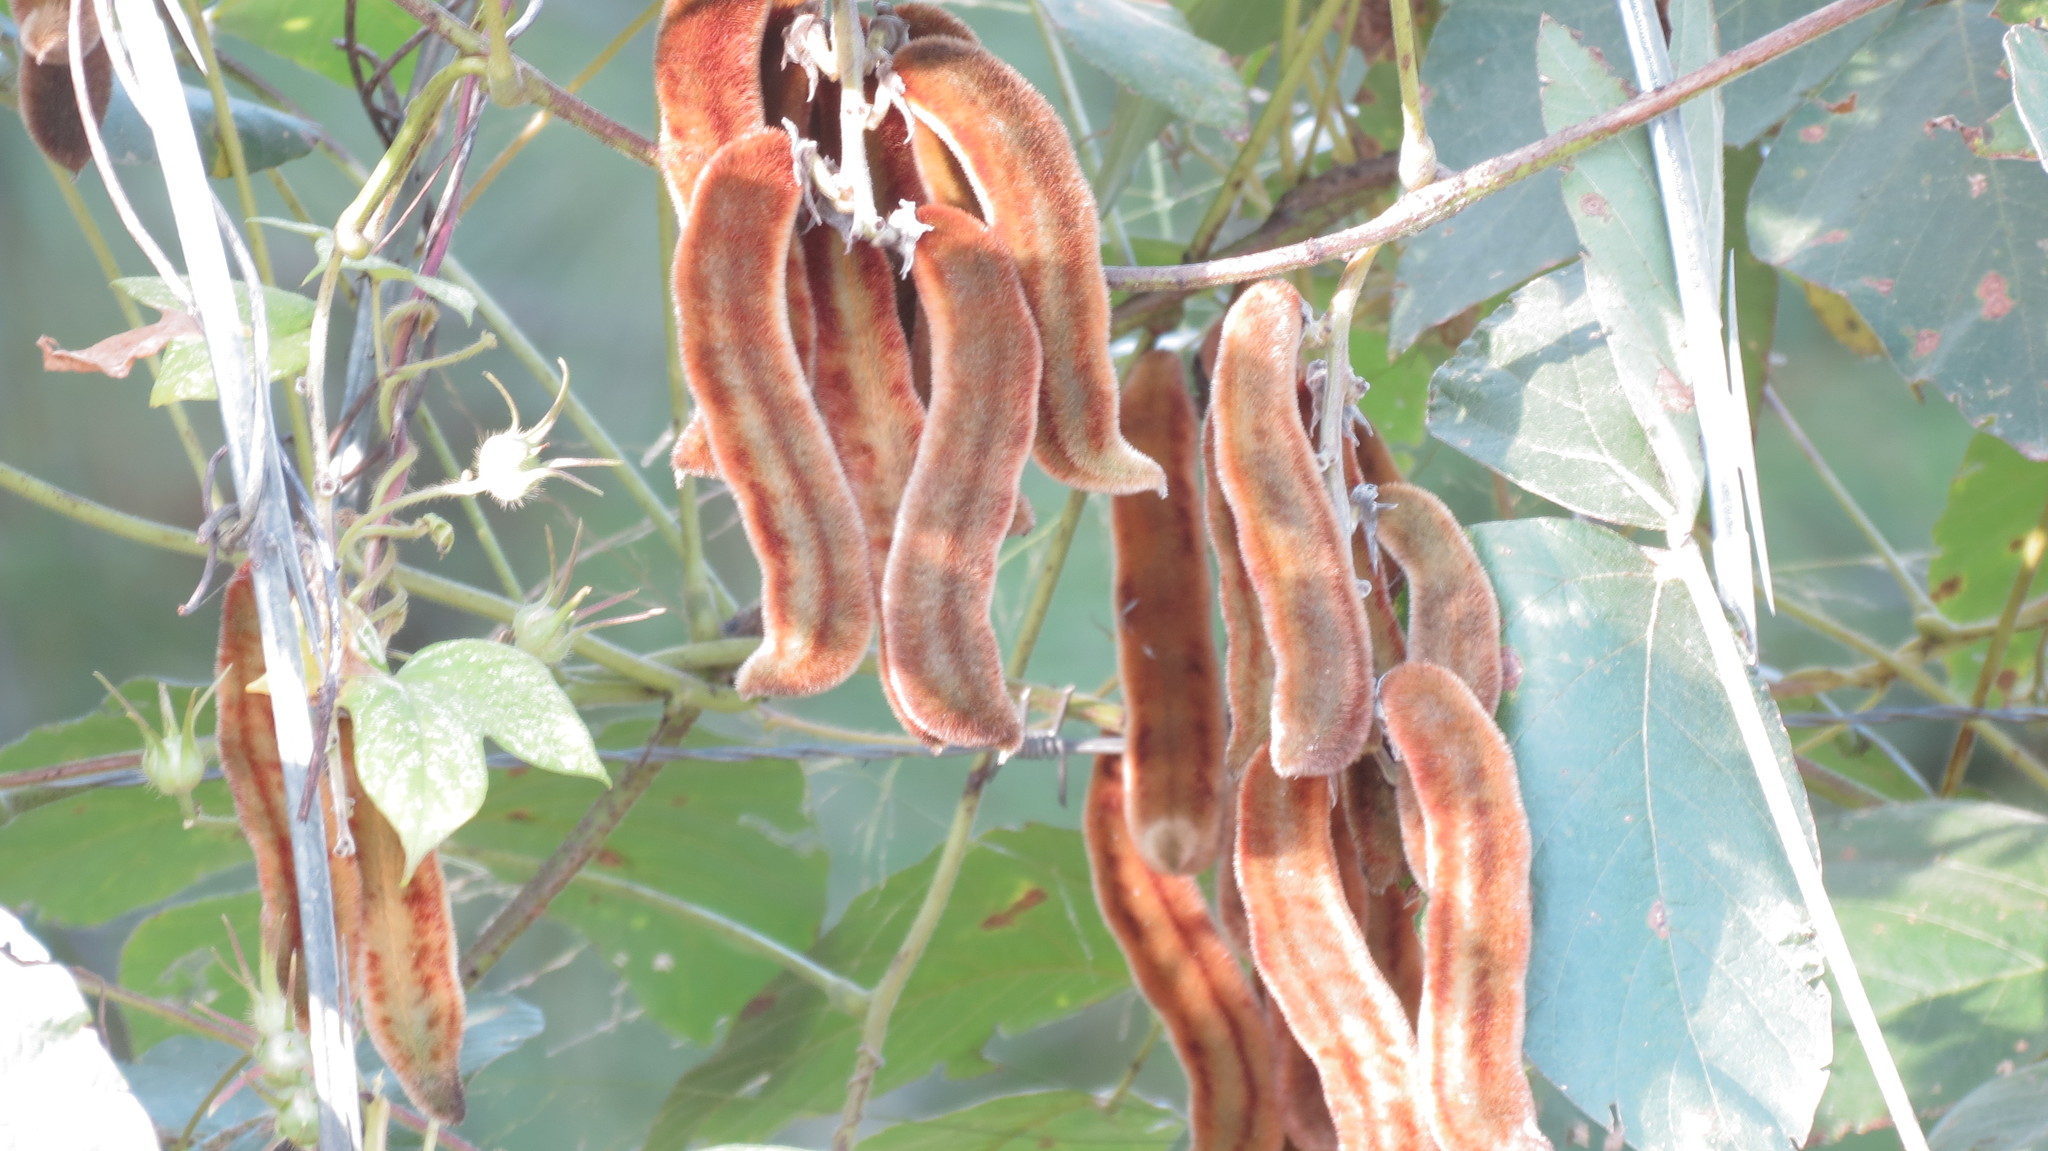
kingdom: Plantae
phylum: Tracheophyta
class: Magnoliopsida
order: Fabales
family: Fabaceae
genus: Mucuna
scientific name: Mucuna pruriens
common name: Cow-itch
